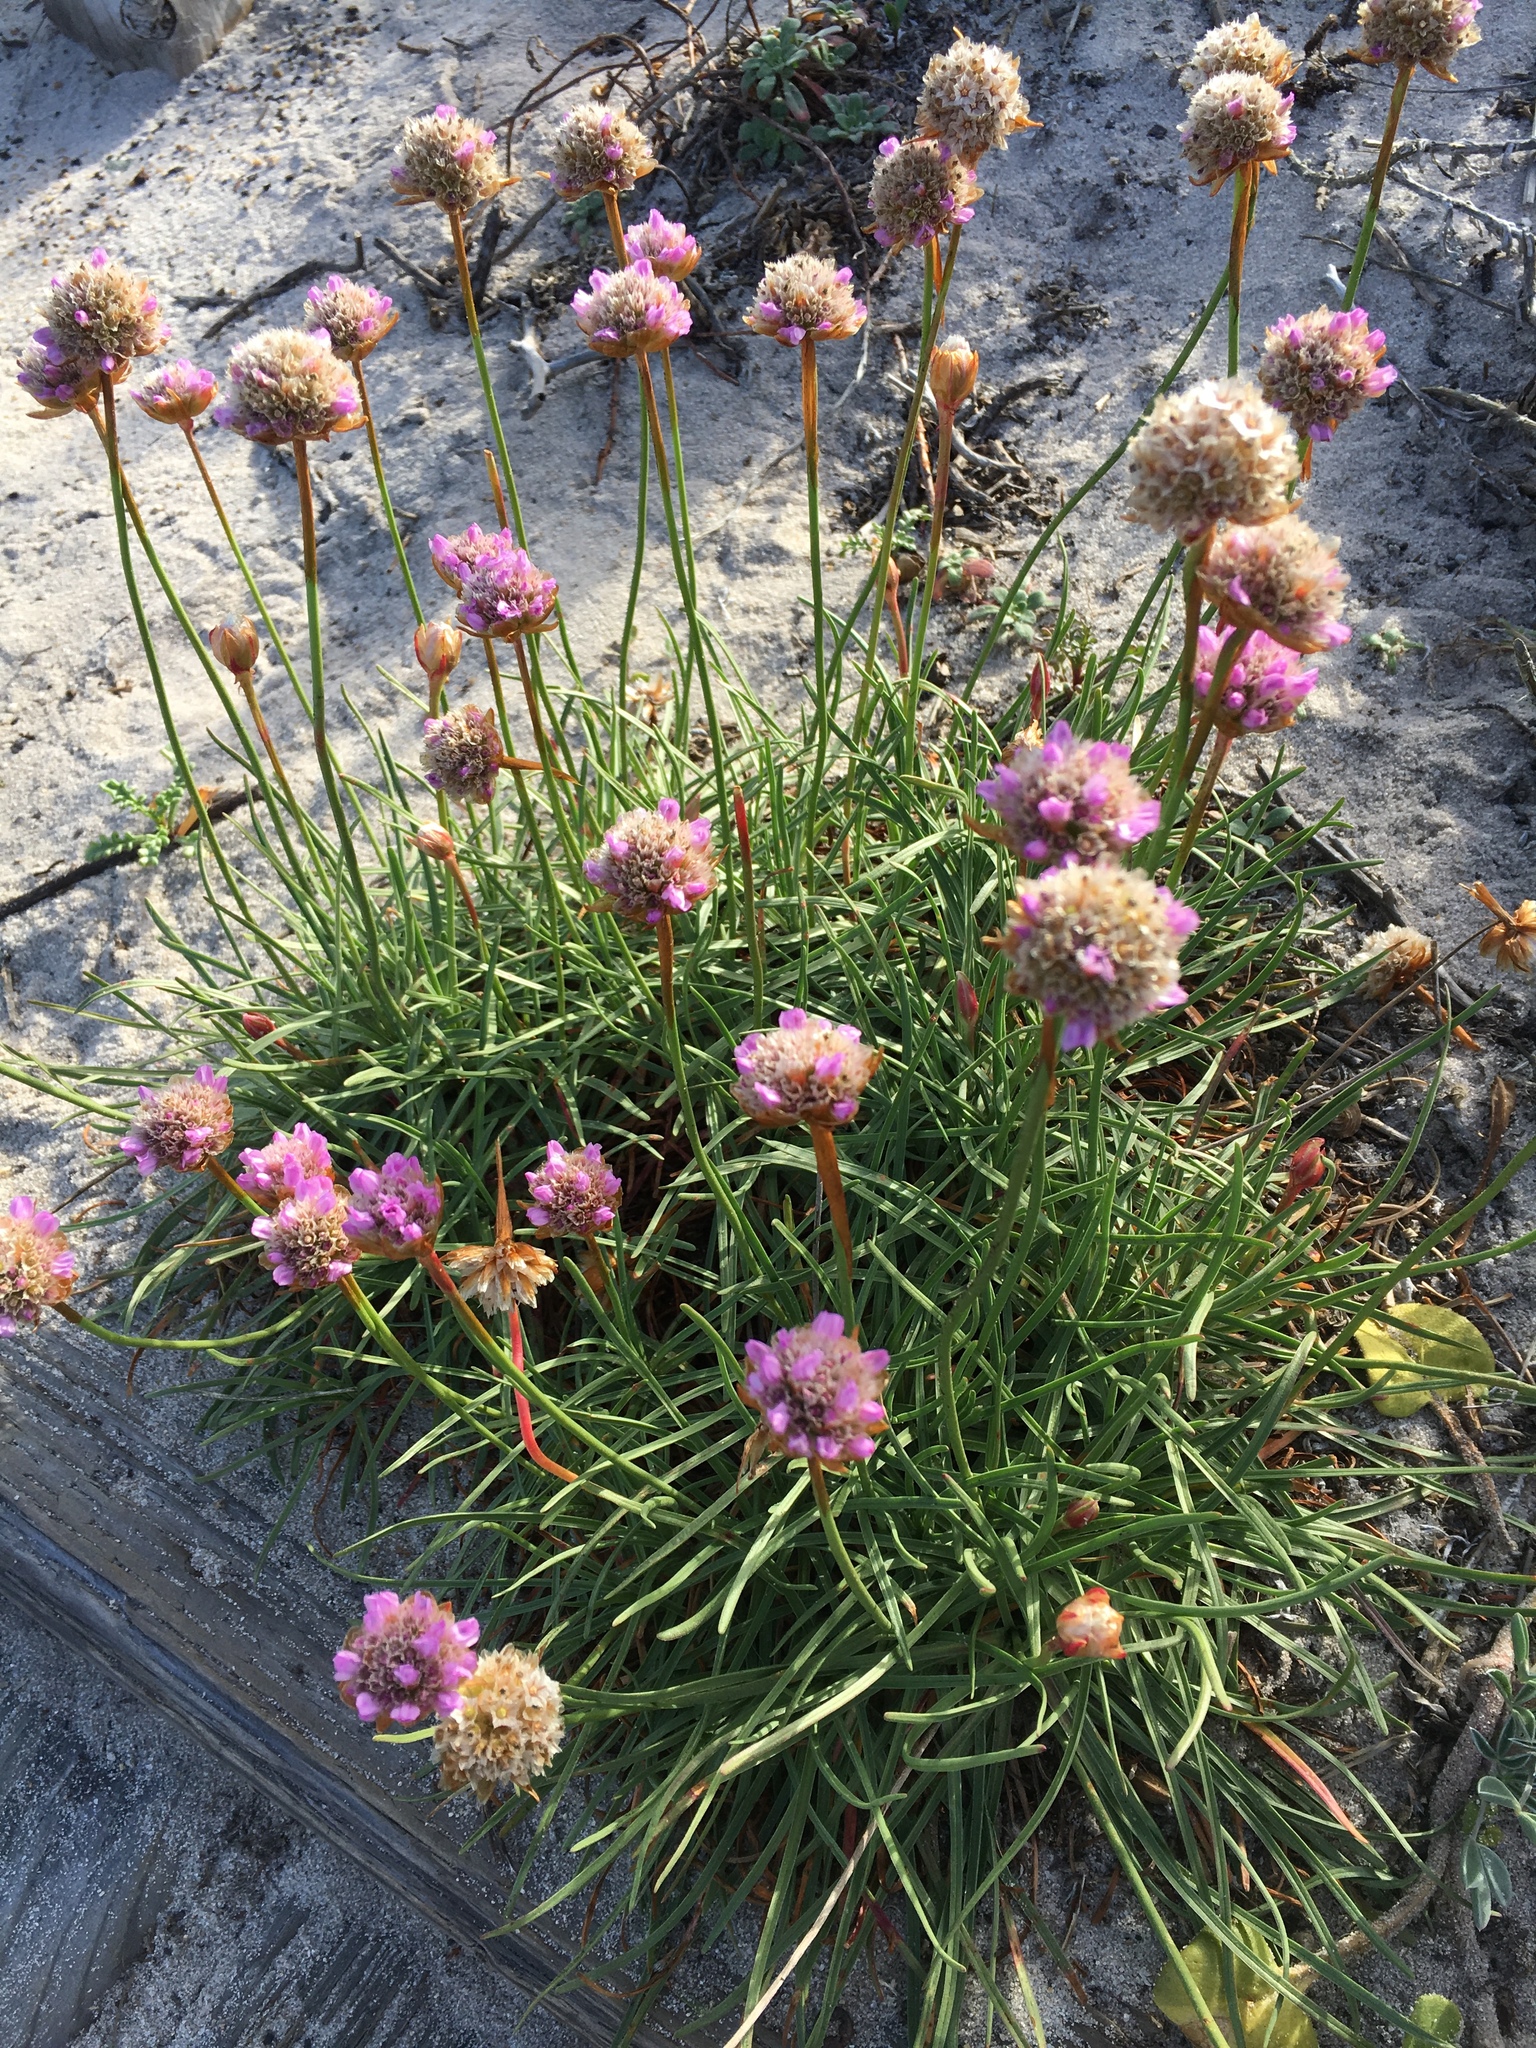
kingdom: Plantae
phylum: Tracheophyta
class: Magnoliopsida
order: Caryophyllales
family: Plumbaginaceae
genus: Armeria
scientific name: Armeria maritima
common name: Thrift
